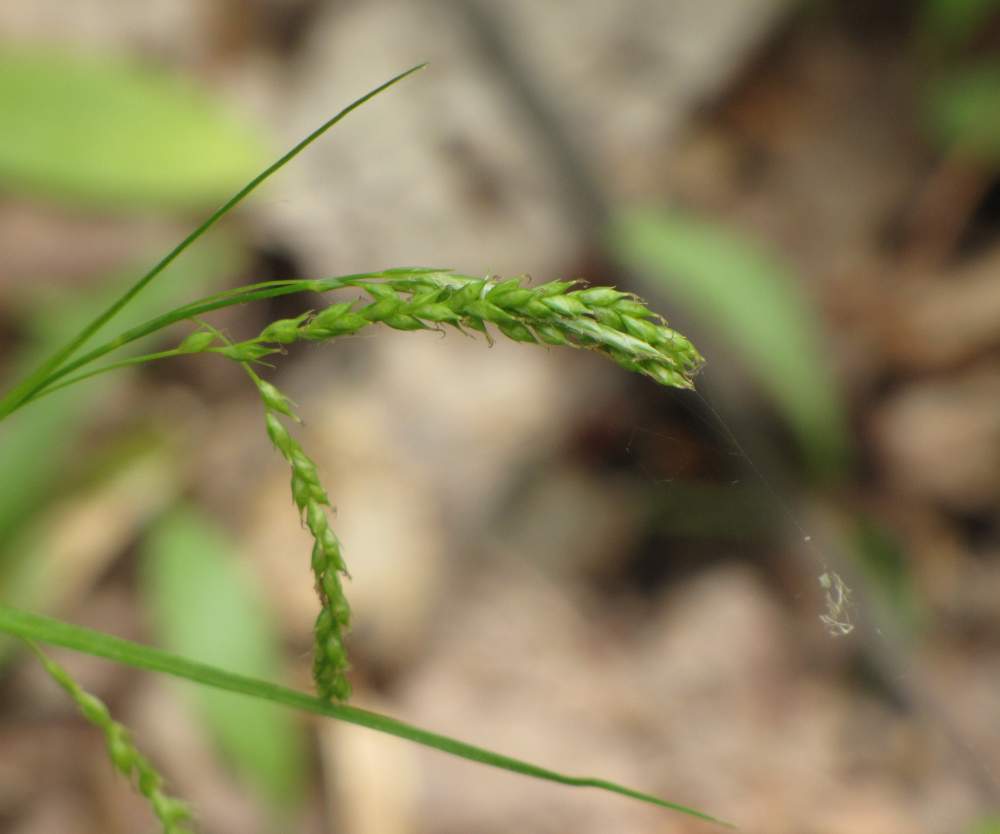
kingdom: Plantae
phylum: Tracheophyta
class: Liliopsida
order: Poales
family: Cyperaceae
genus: Carex
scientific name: Carex arctata
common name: Black sedge
